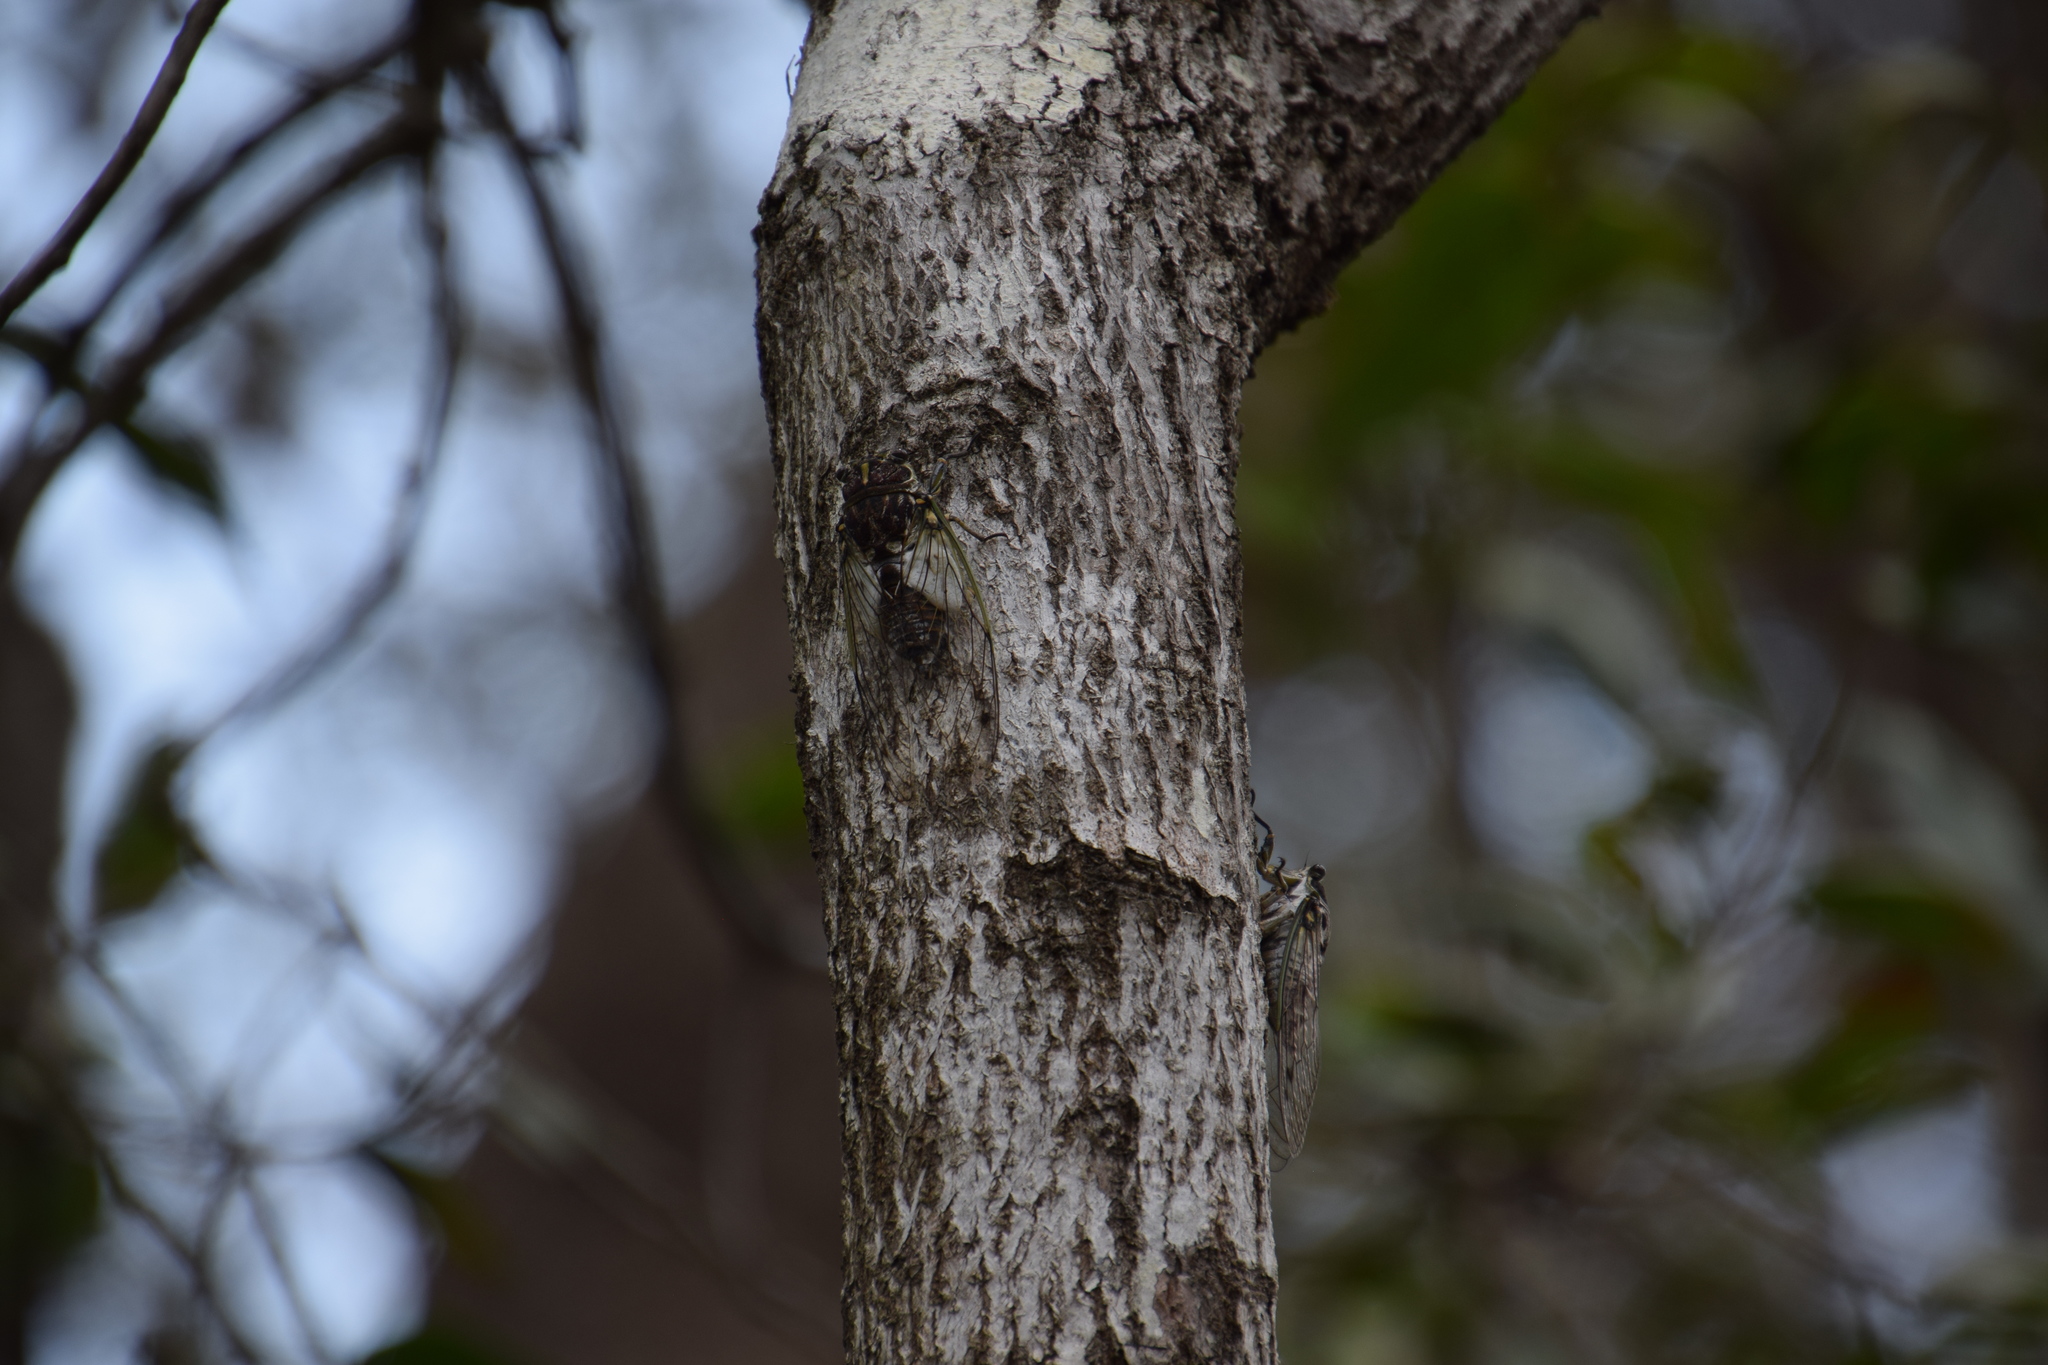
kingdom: Animalia
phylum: Arthropoda
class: Insecta
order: Hemiptera
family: Cicadidae
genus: Arunta
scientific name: Arunta perulata
